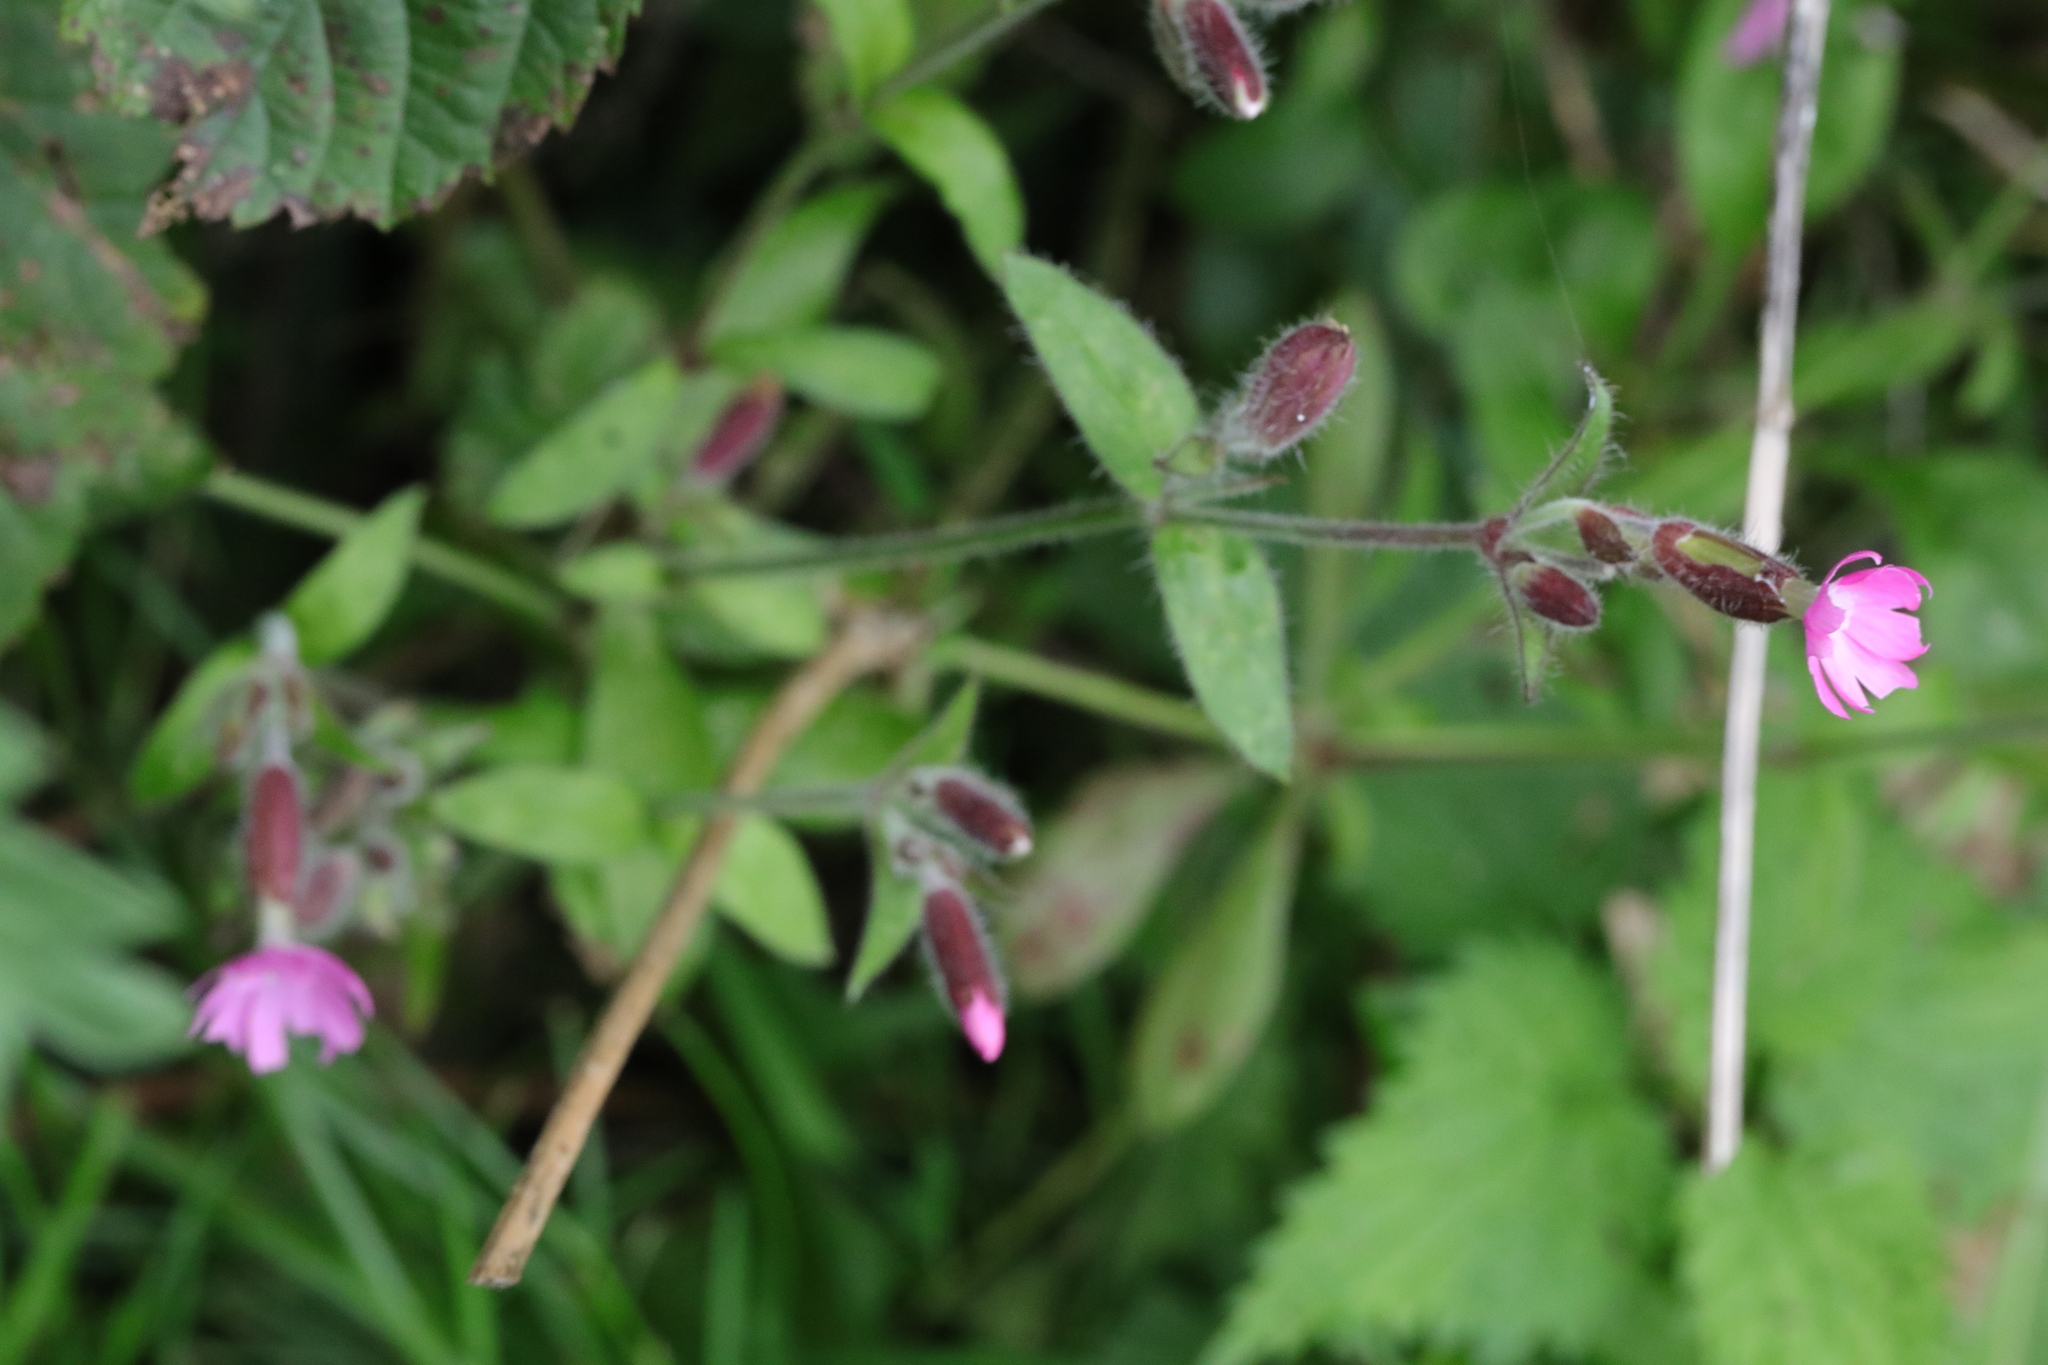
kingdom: Plantae
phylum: Tracheophyta
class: Magnoliopsida
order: Caryophyllales
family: Caryophyllaceae
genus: Silene
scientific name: Silene dioica
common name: Red campion
